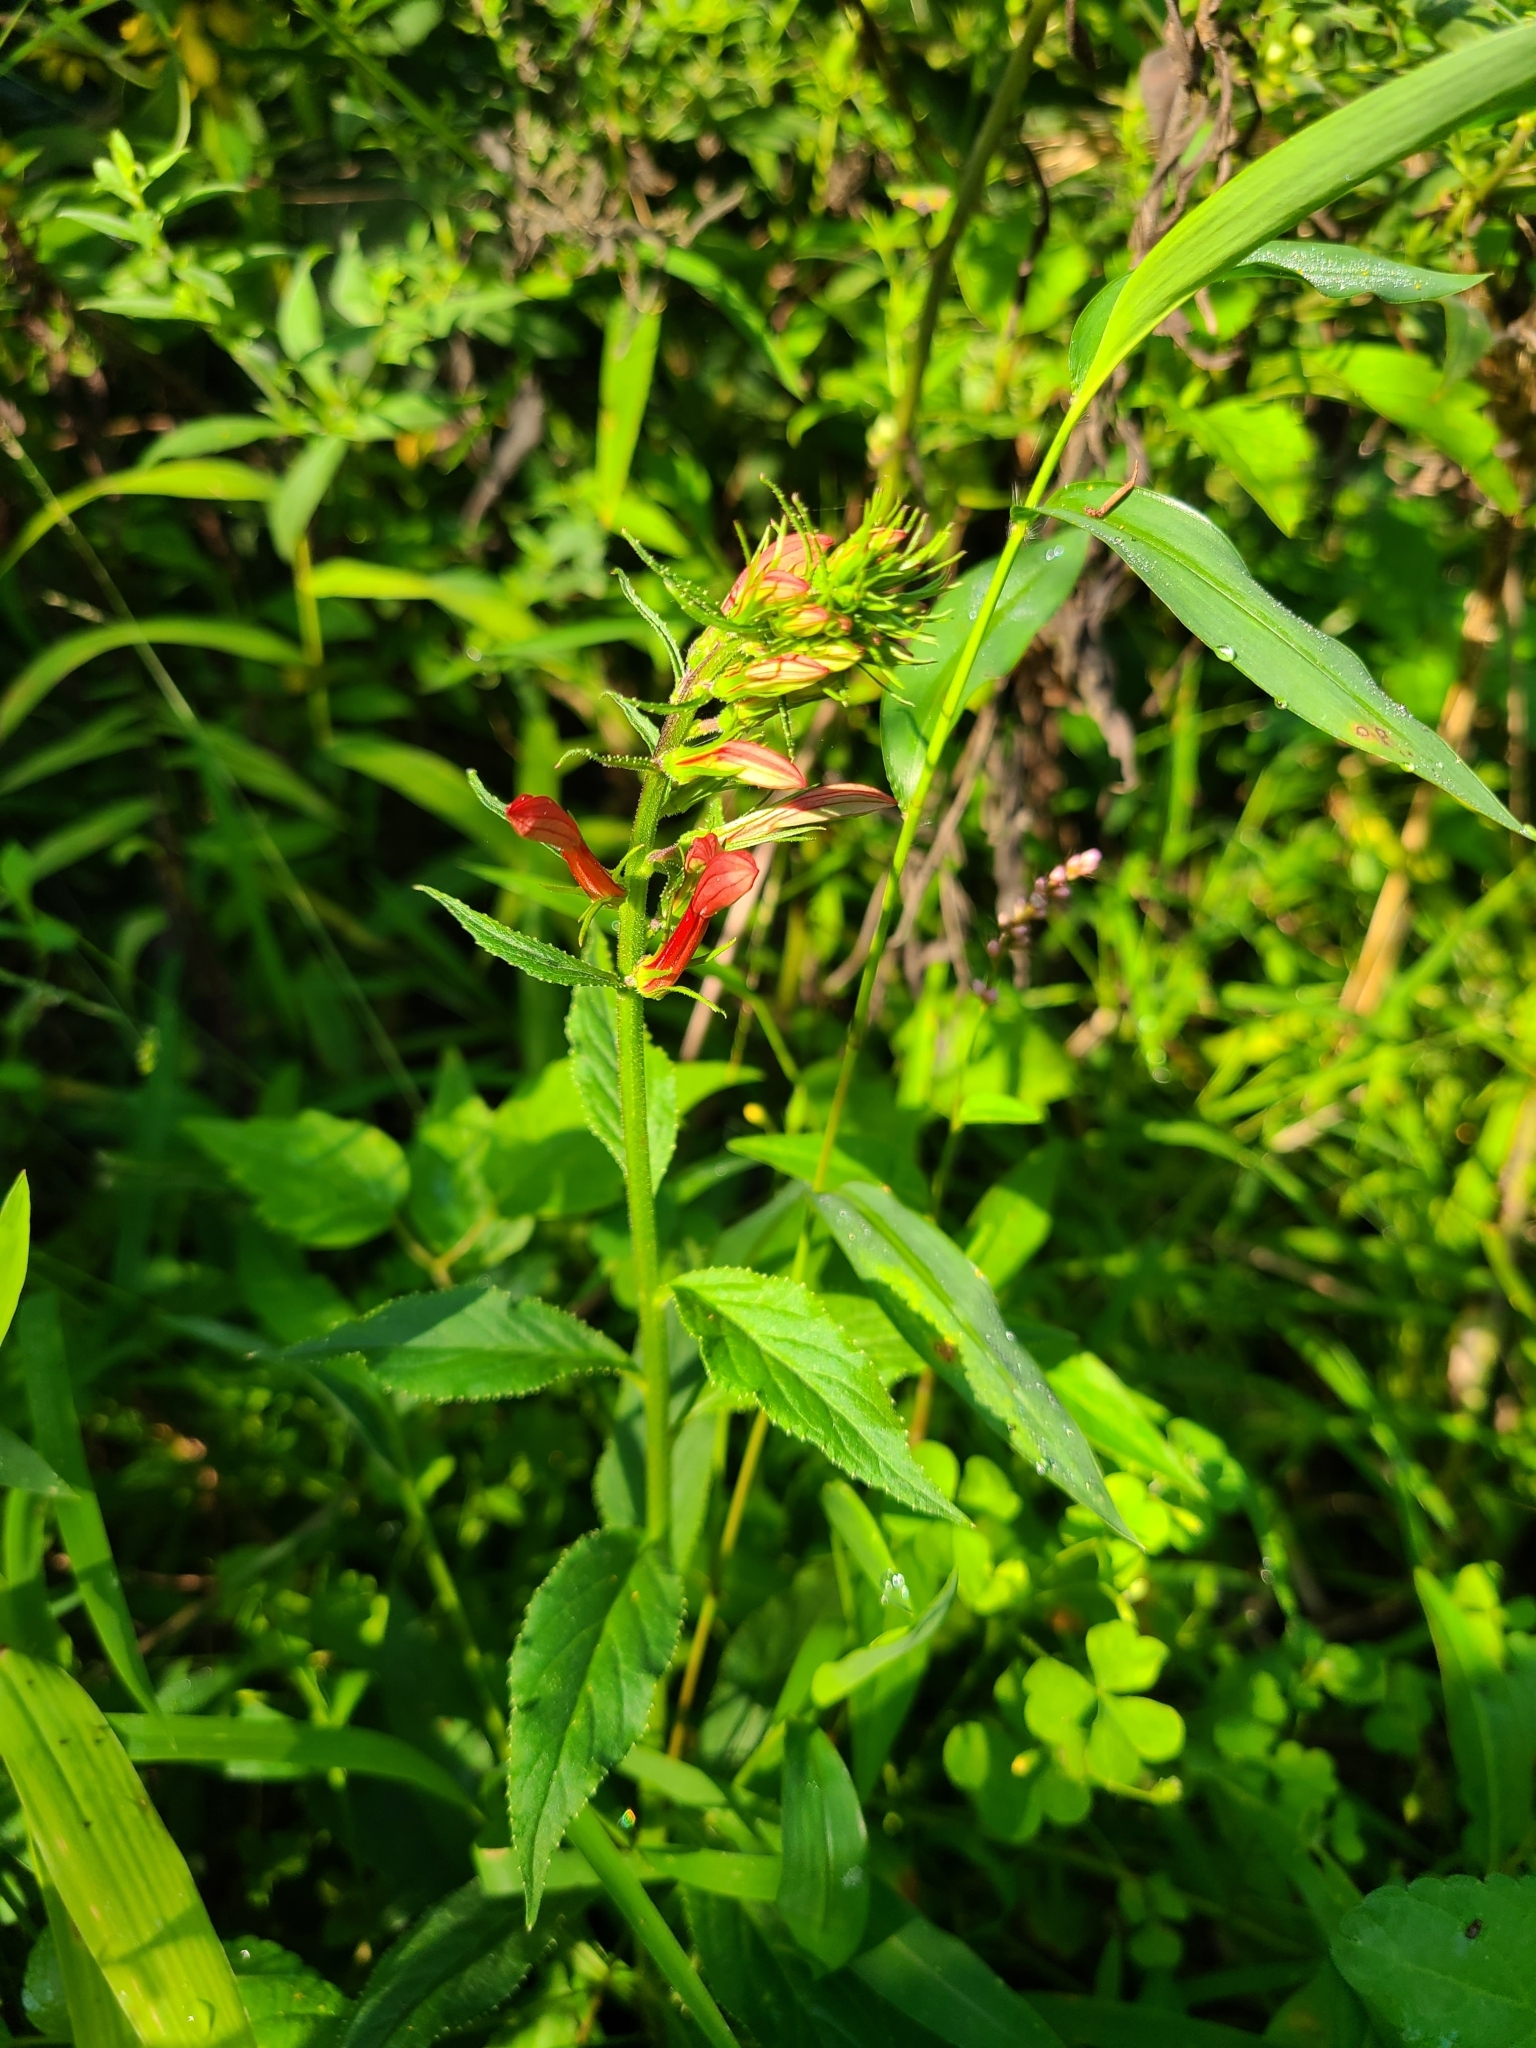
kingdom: Plantae
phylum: Tracheophyta
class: Magnoliopsida
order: Asterales
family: Campanulaceae
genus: Lobelia
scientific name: Lobelia cardinalis
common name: Cardinal flower
